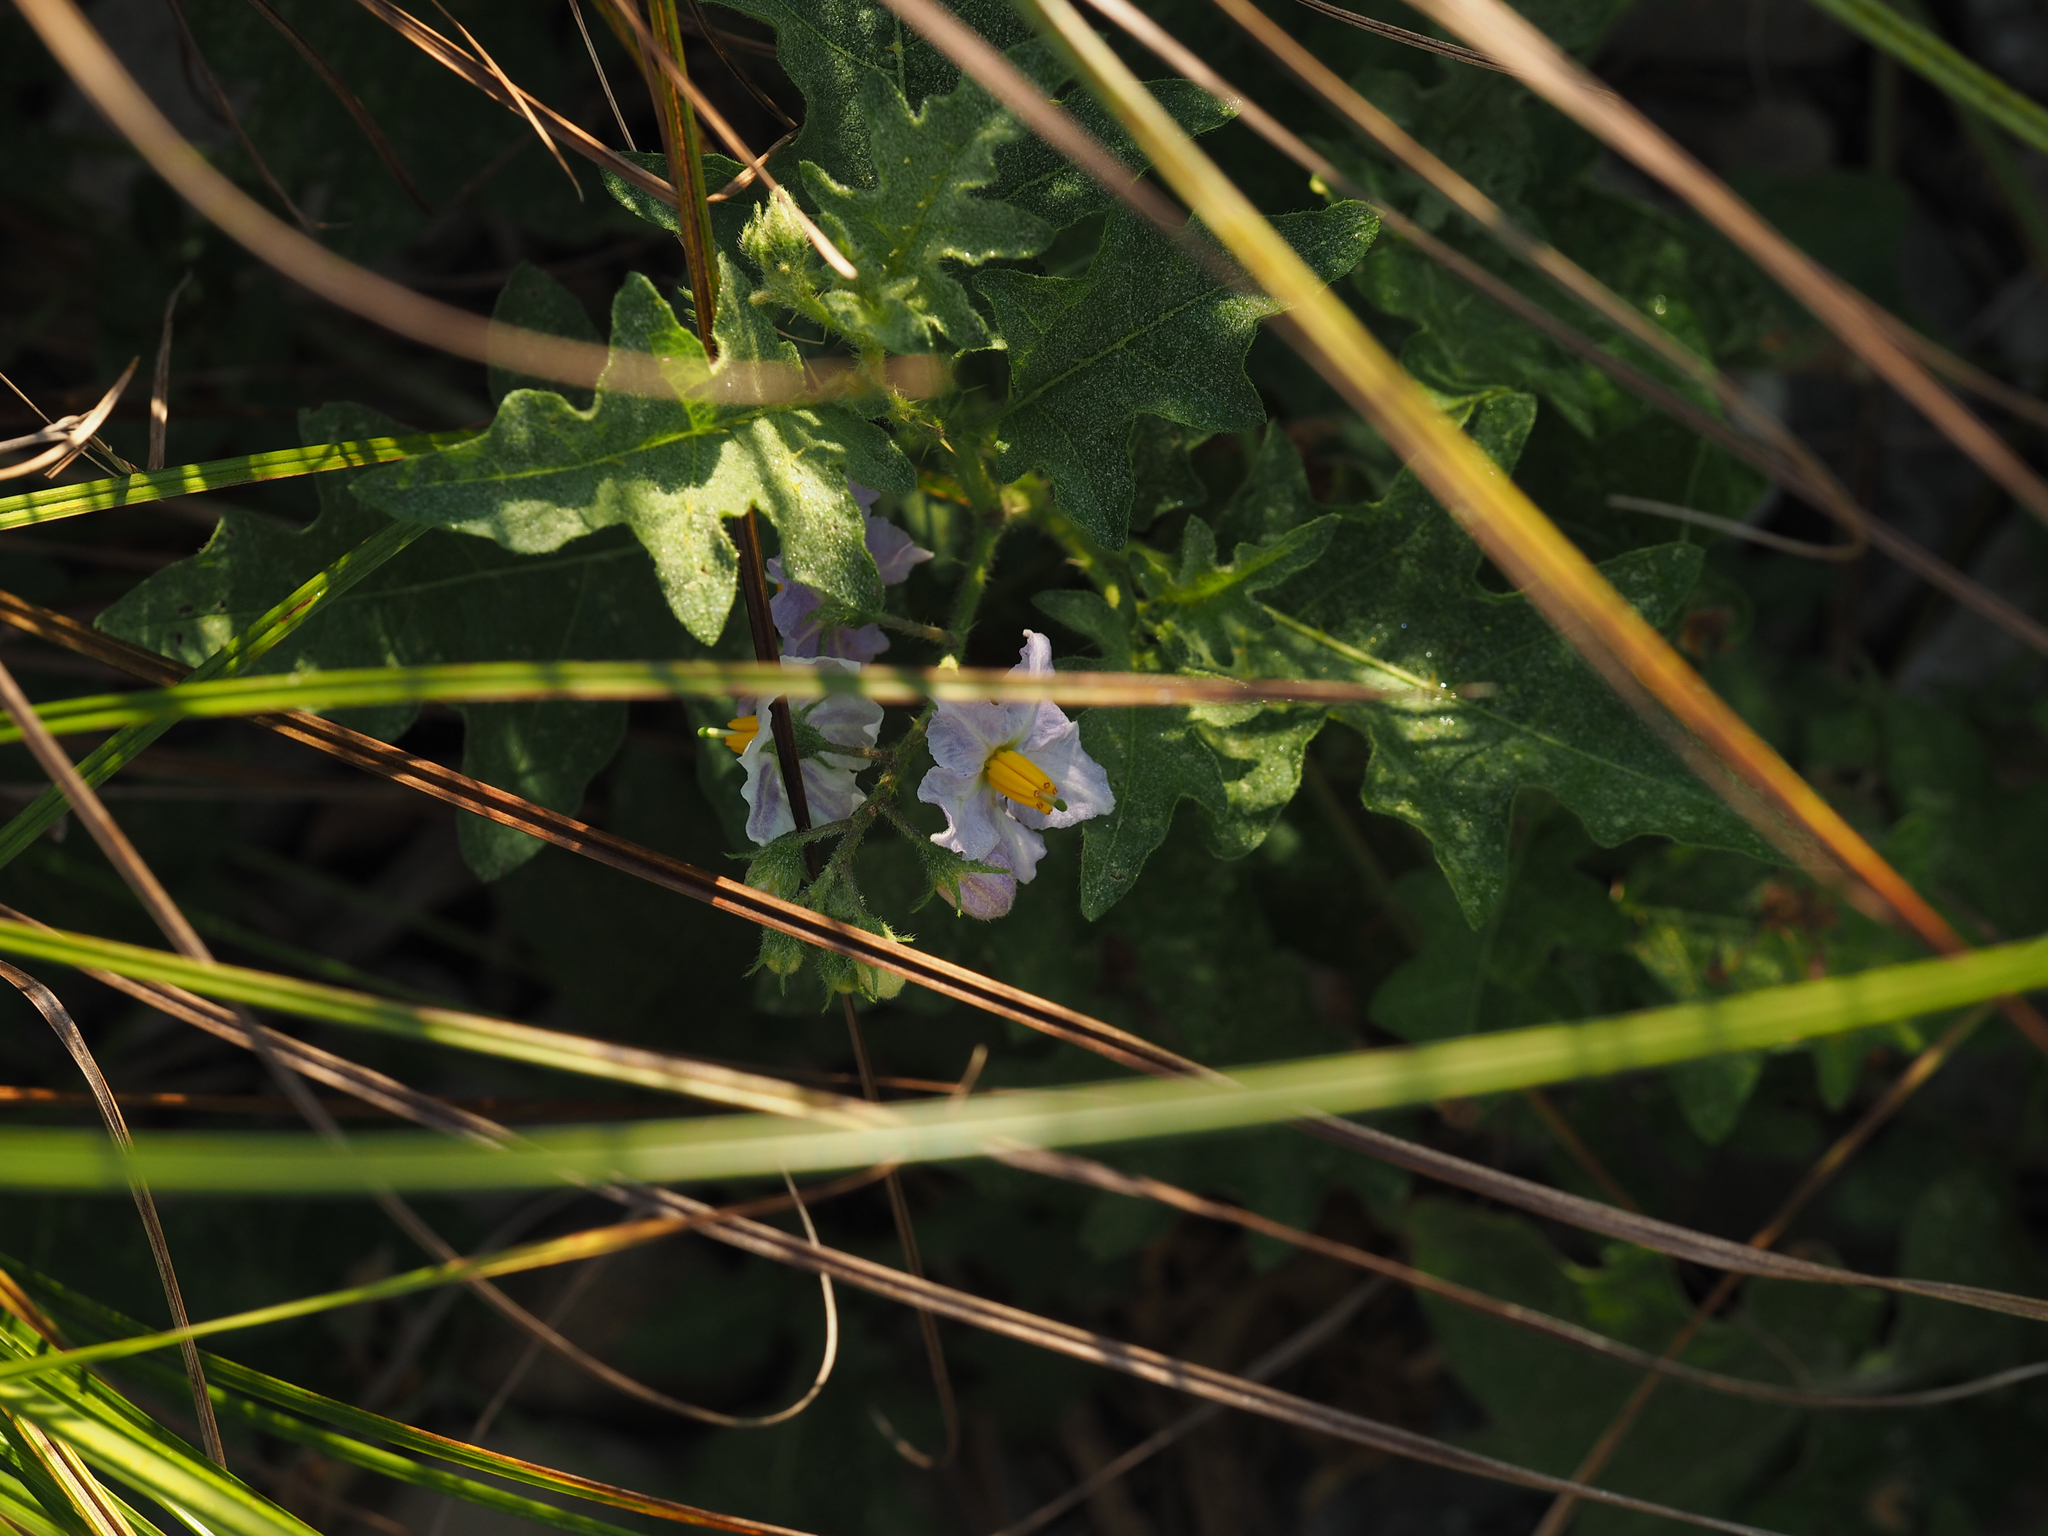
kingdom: Plantae
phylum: Tracheophyta
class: Magnoliopsida
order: Solanales
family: Solanaceae
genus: Solanum
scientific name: Solanum carolinense
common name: Horse-nettle
